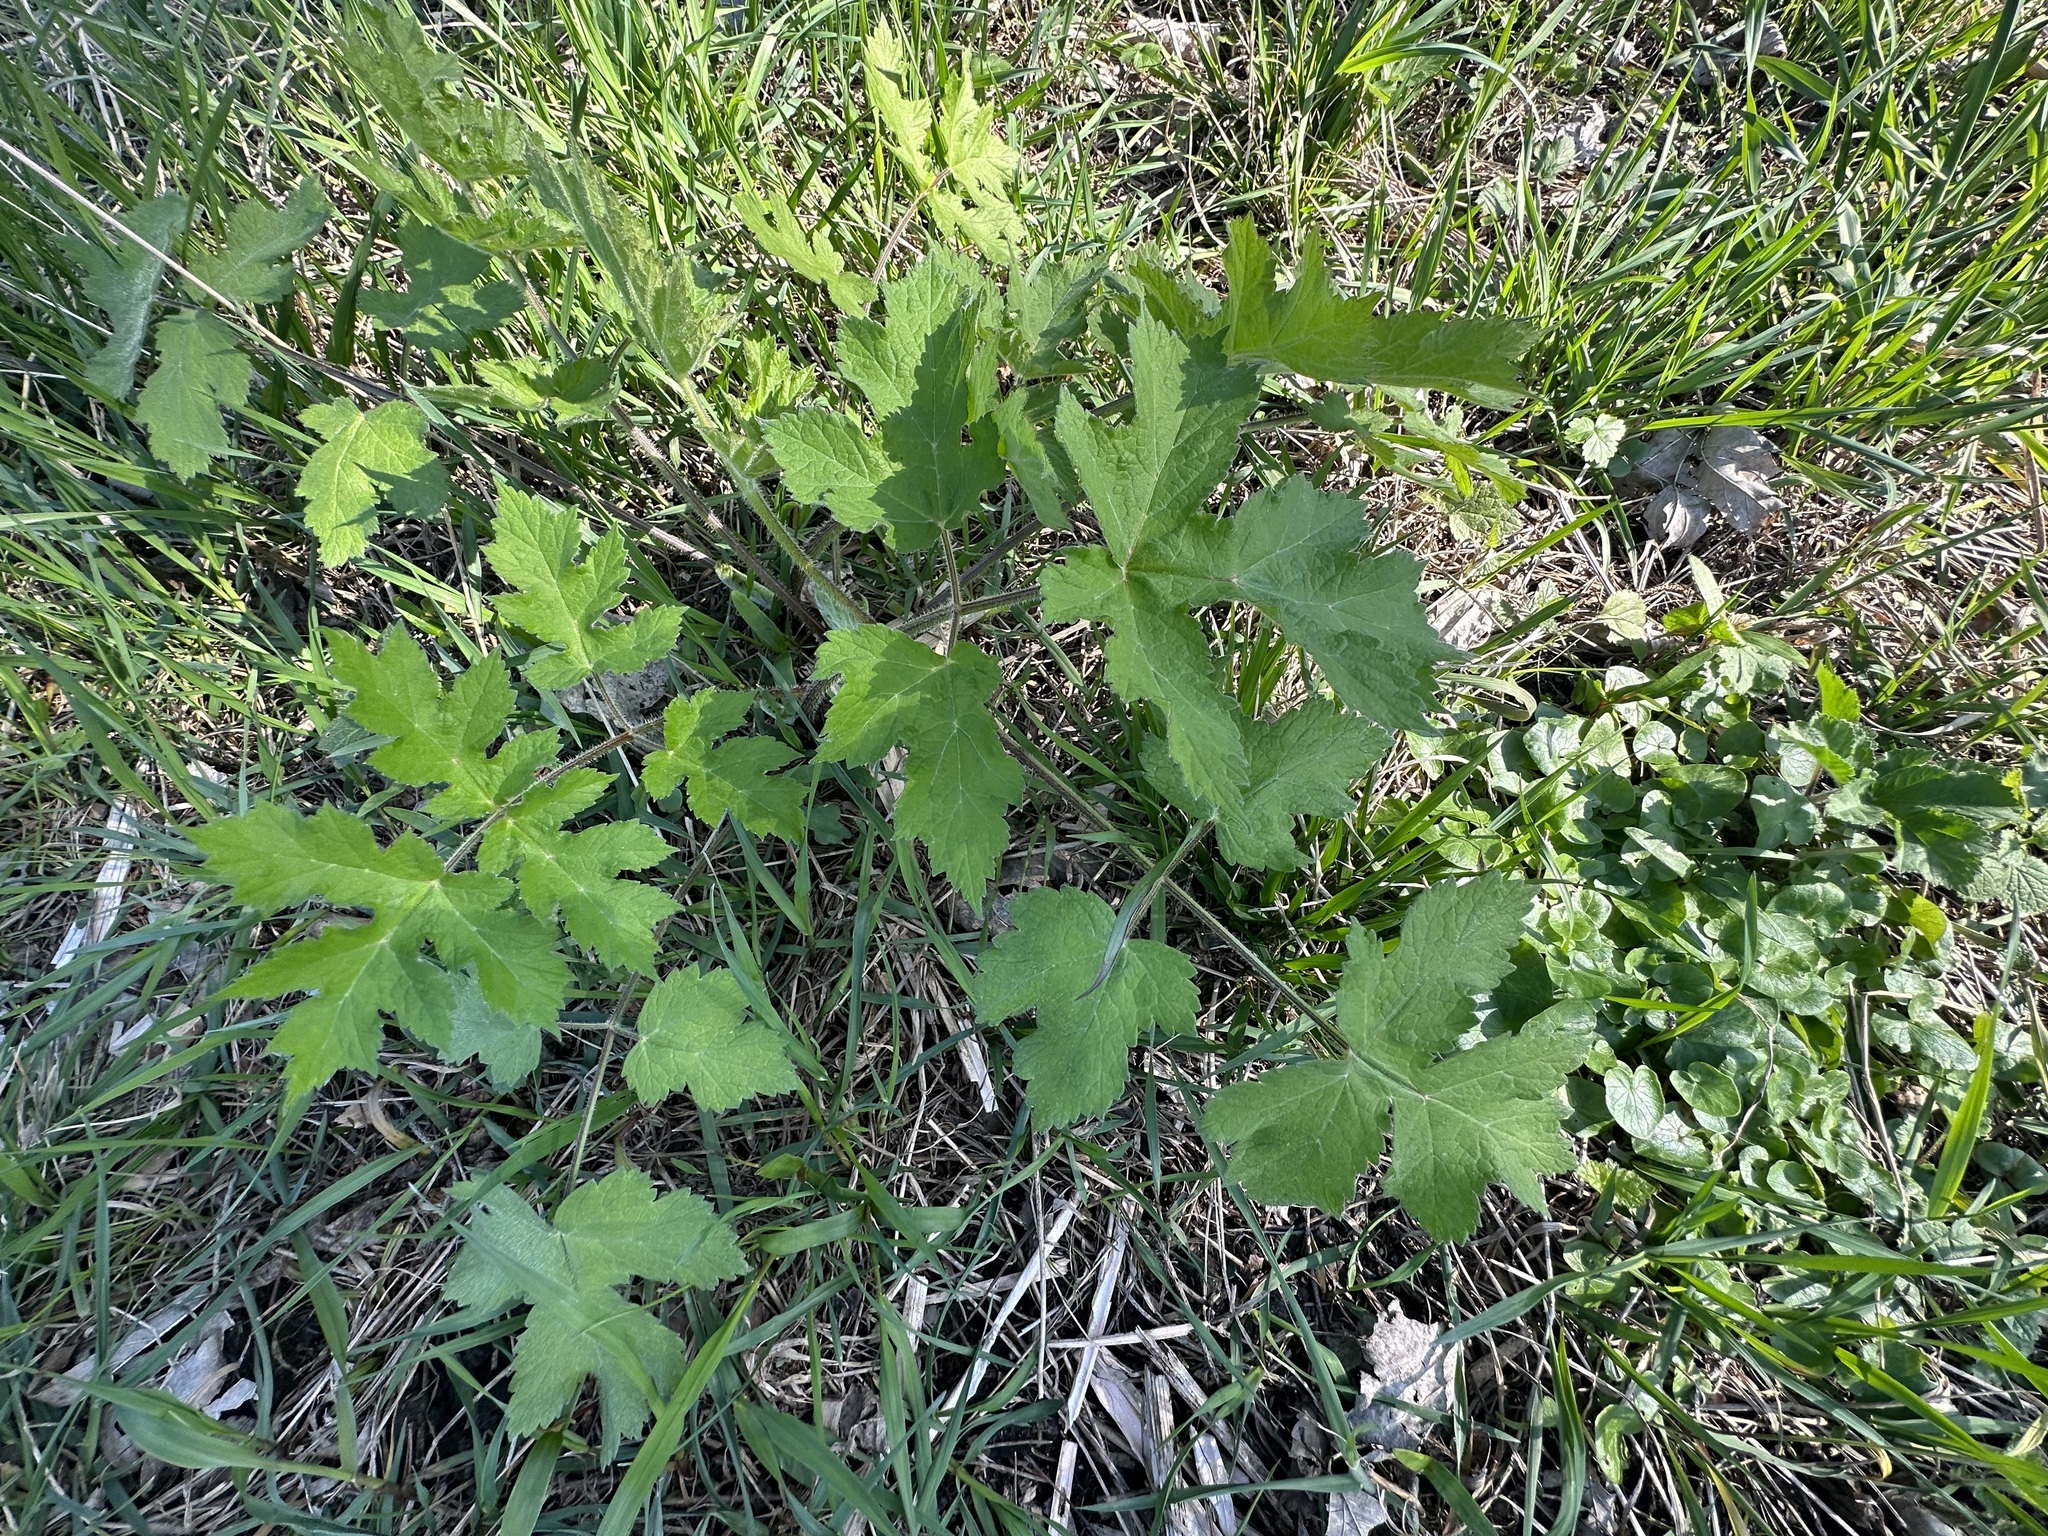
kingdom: Plantae
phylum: Tracheophyta
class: Magnoliopsida
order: Apiales
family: Apiaceae
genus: Heracleum
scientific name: Heracleum sphondylium
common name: Hogweed
